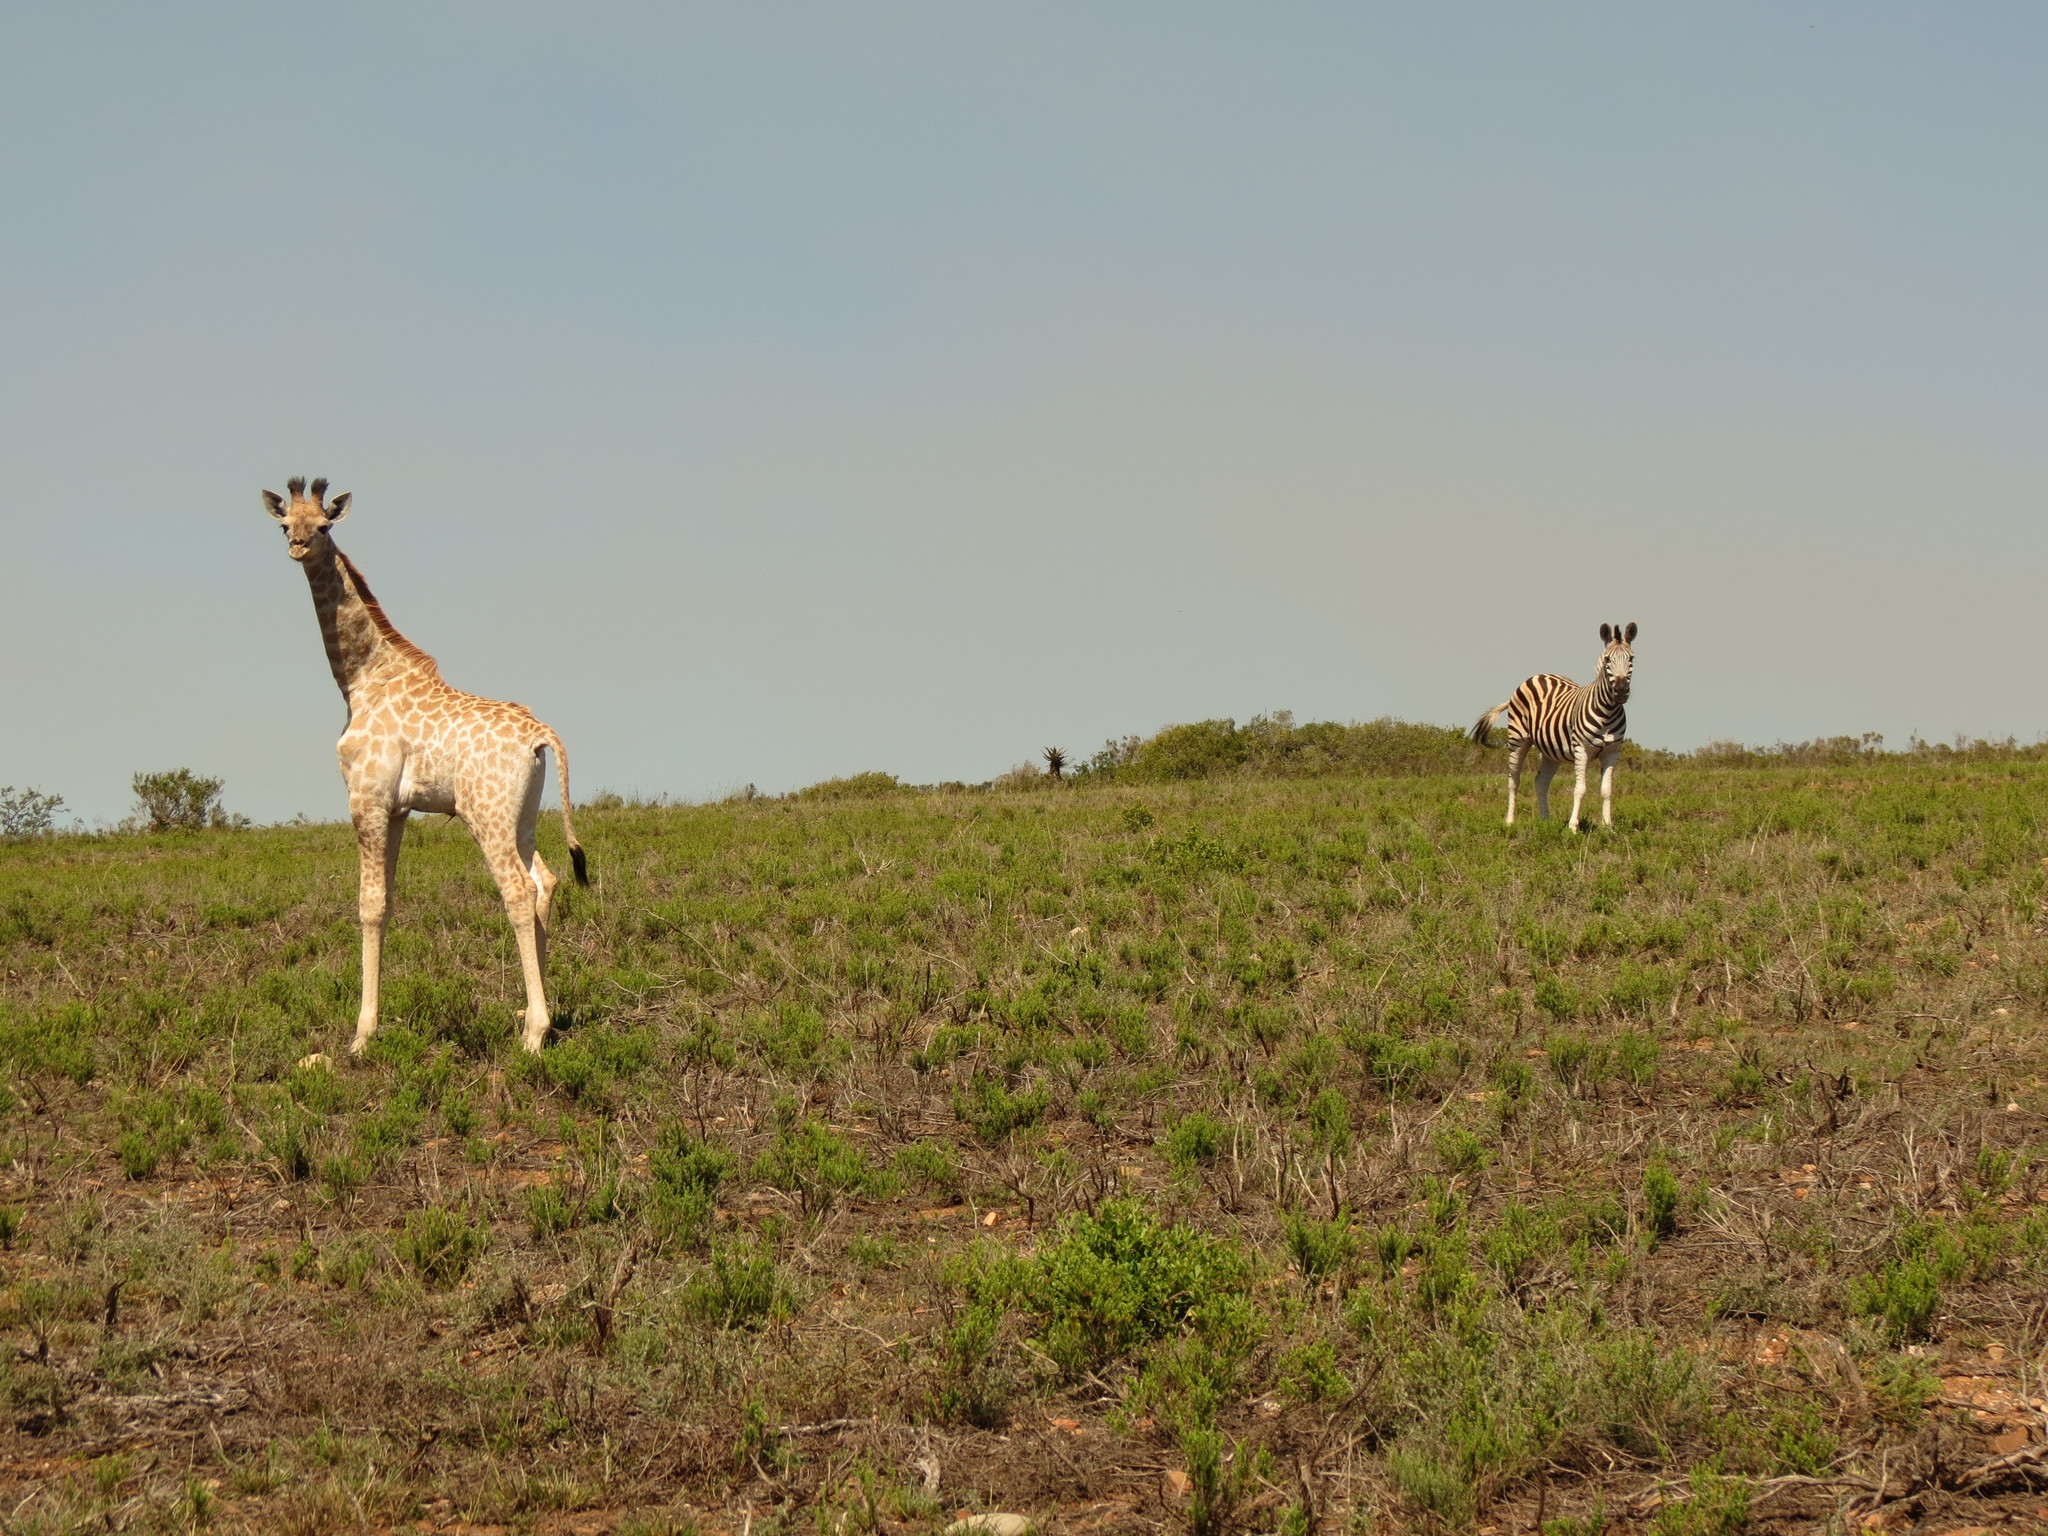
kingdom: Animalia
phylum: Chordata
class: Mammalia
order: Artiodactyla
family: Giraffidae
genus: Giraffa
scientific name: Giraffa giraffa
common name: Southern giraffe
